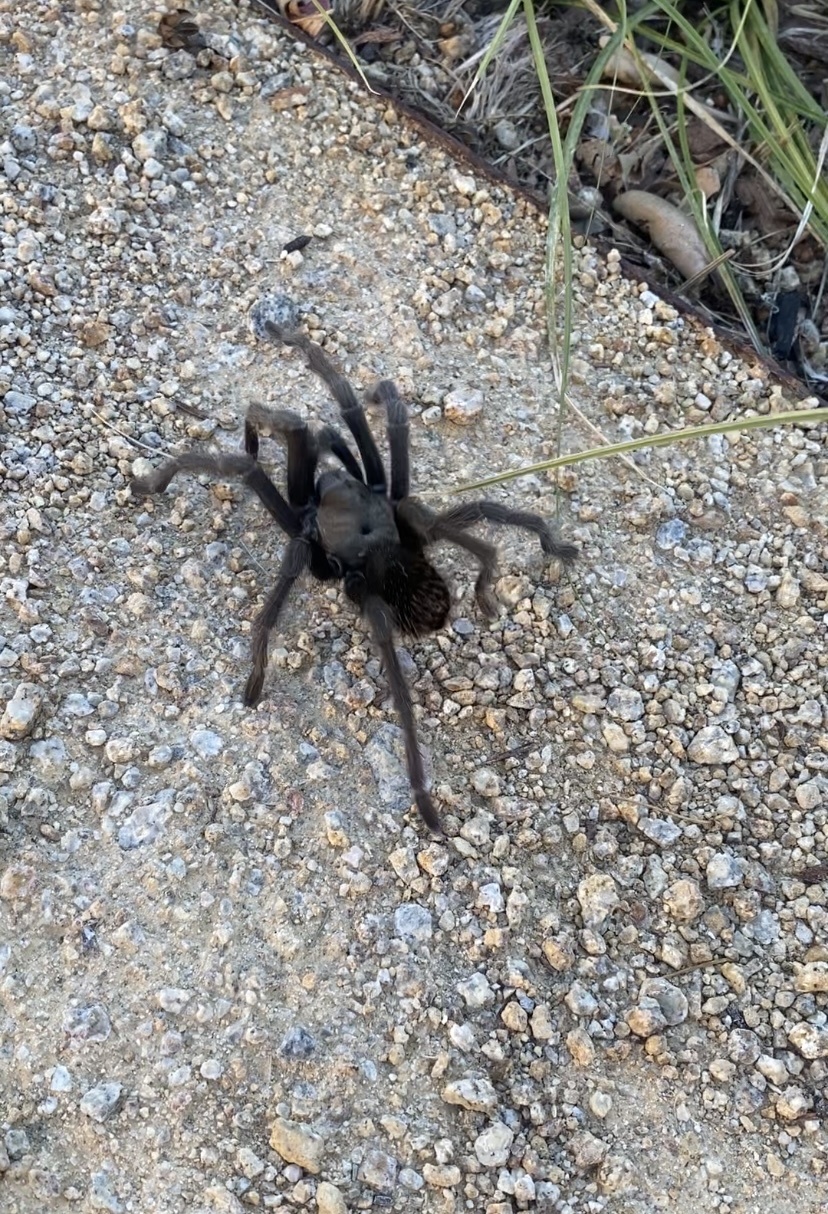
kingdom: Animalia
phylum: Arthropoda
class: Arachnida
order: Araneae
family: Theraphosidae
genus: Aphonopelma
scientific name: Aphonopelma iodius
